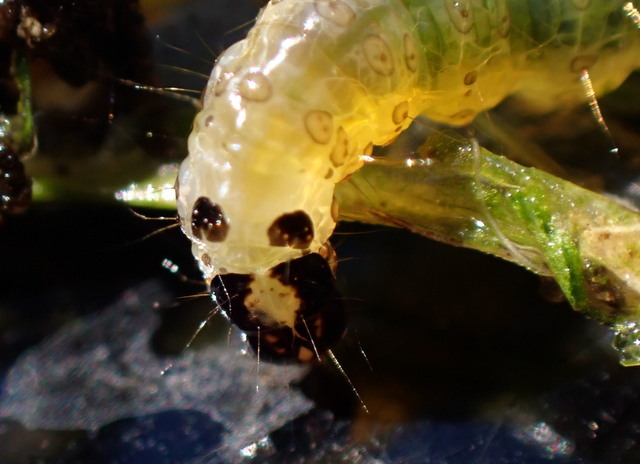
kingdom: Animalia
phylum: Arthropoda
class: Insecta
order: Lepidoptera
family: Crambidae
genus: Herpetogramma
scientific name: Herpetogramma bipunctalis
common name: Southern beet webworm
